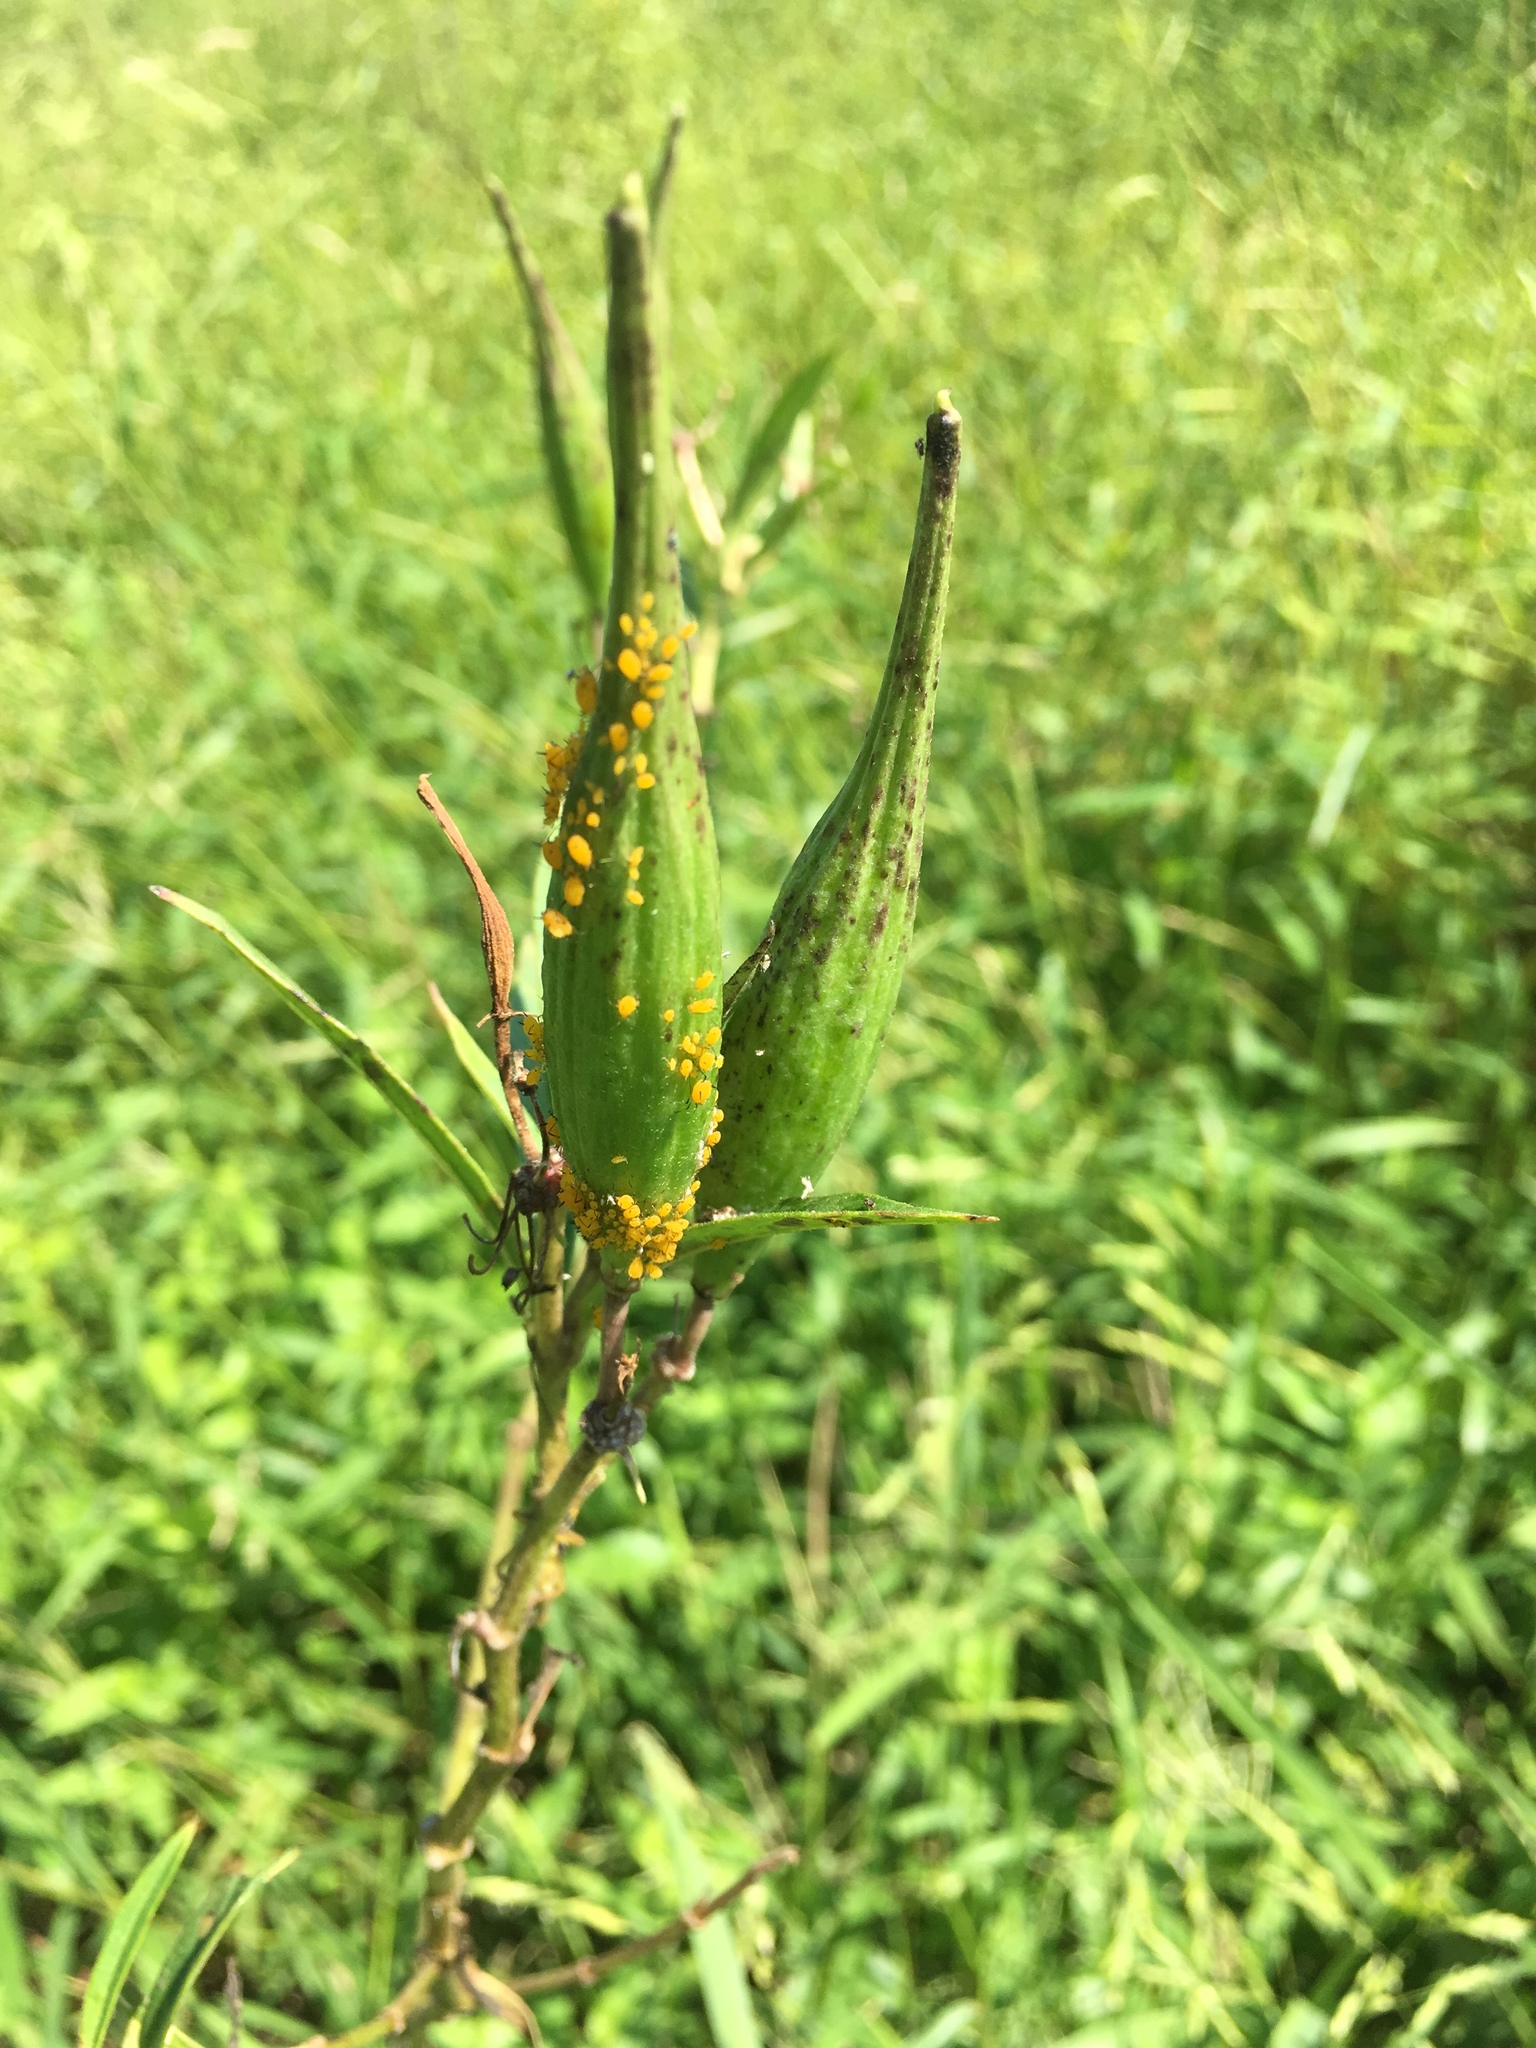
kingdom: Animalia
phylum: Arthropoda
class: Insecta
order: Hemiptera
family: Aphididae
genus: Aphis
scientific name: Aphis nerii
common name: Oleander aphid
